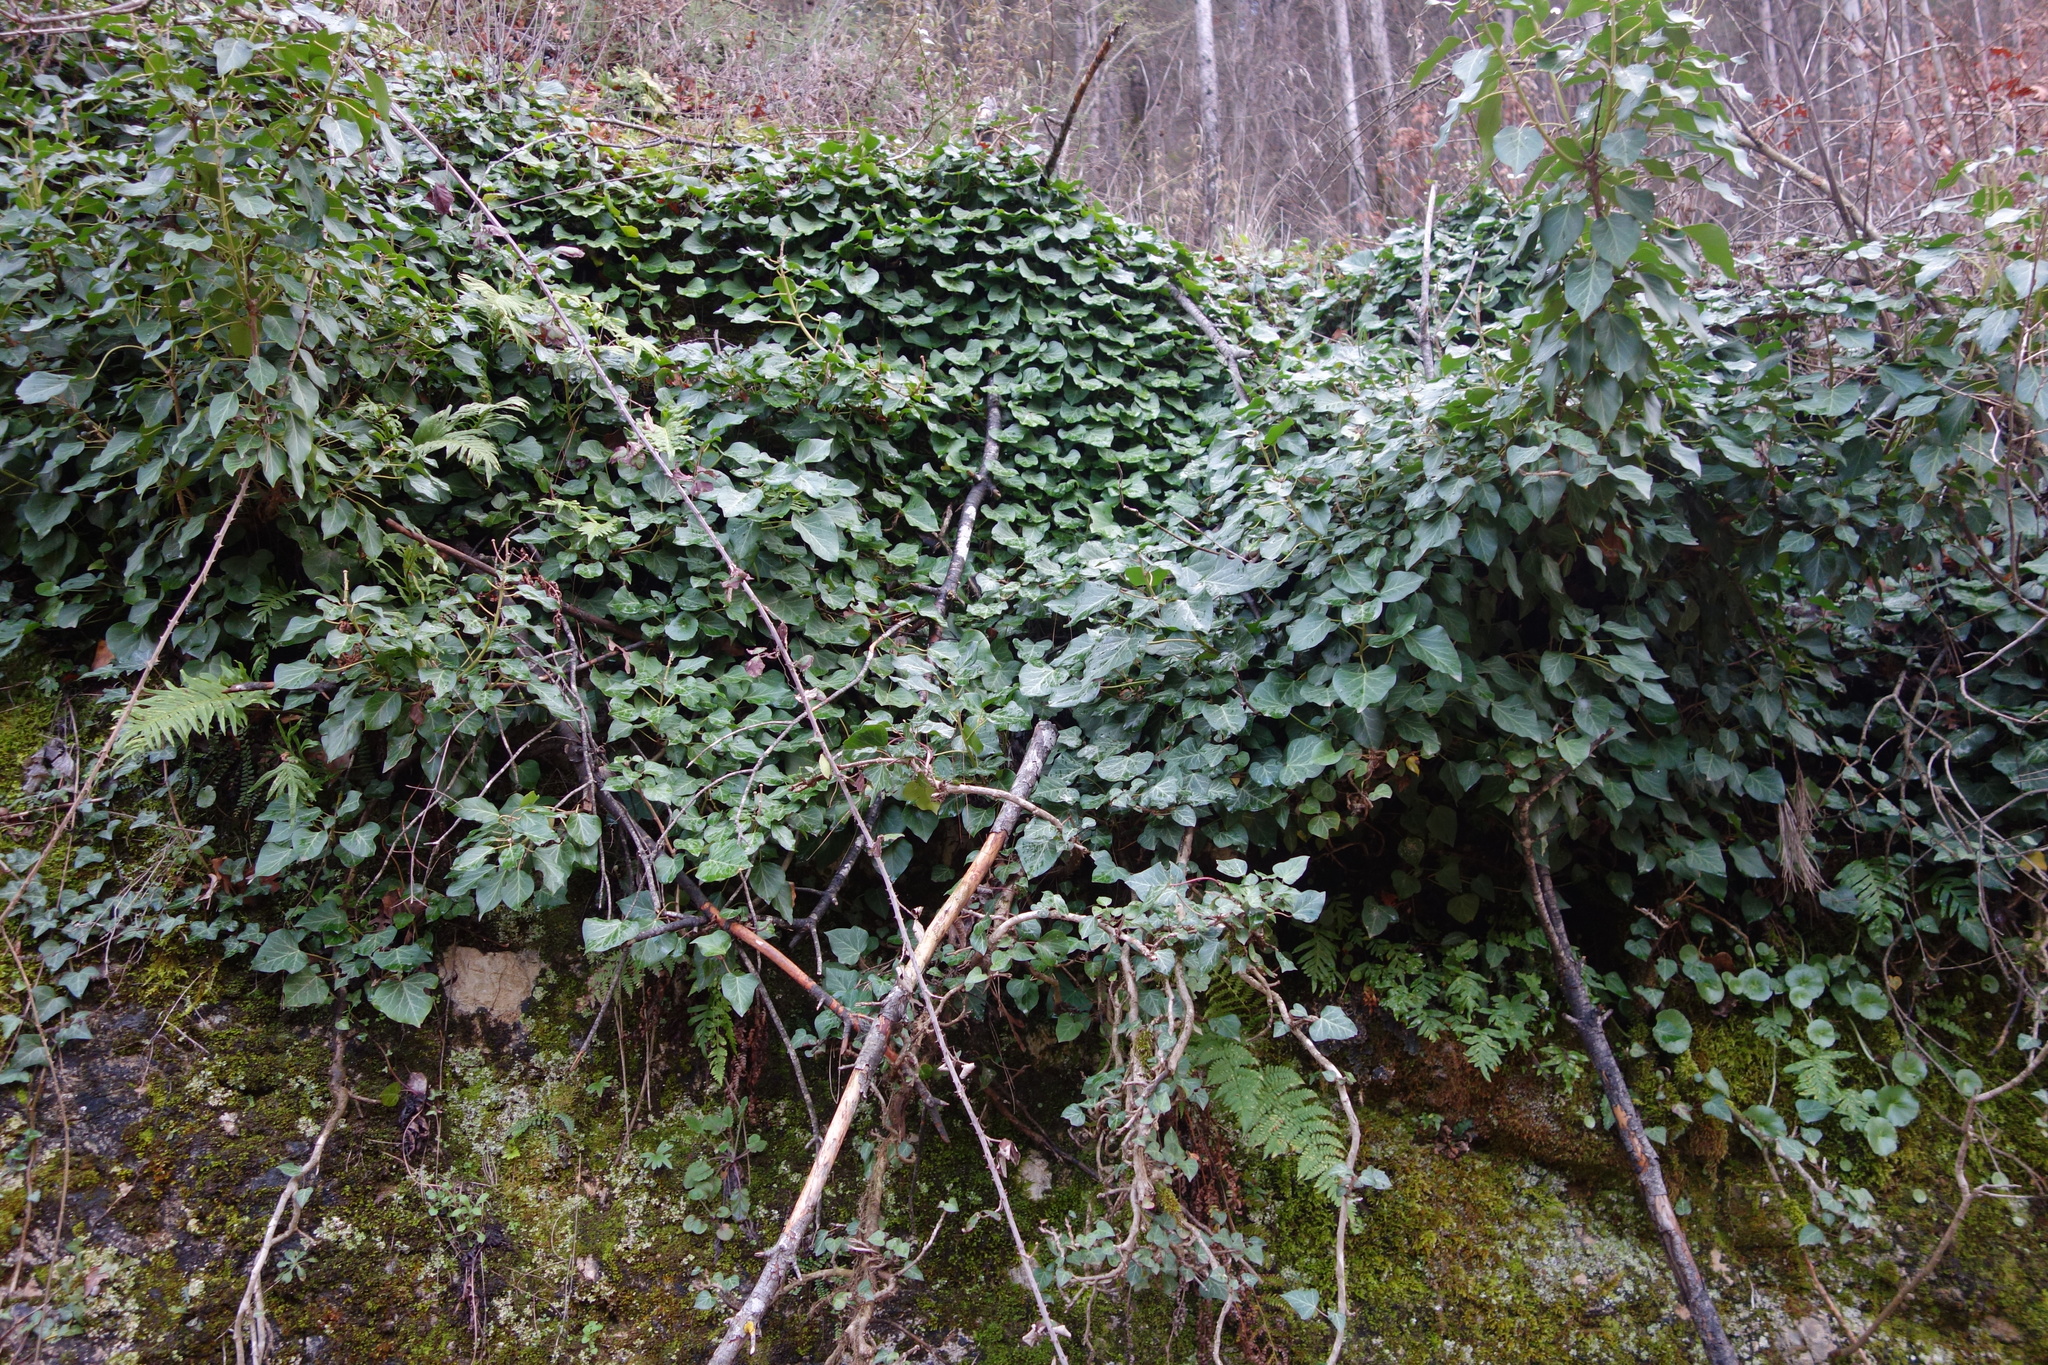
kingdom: Plantae
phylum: Tracheophyta
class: Magnoliopsida
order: Apiales
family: Araliaceae
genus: Hedera
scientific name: Hedera helix
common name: Ivy
